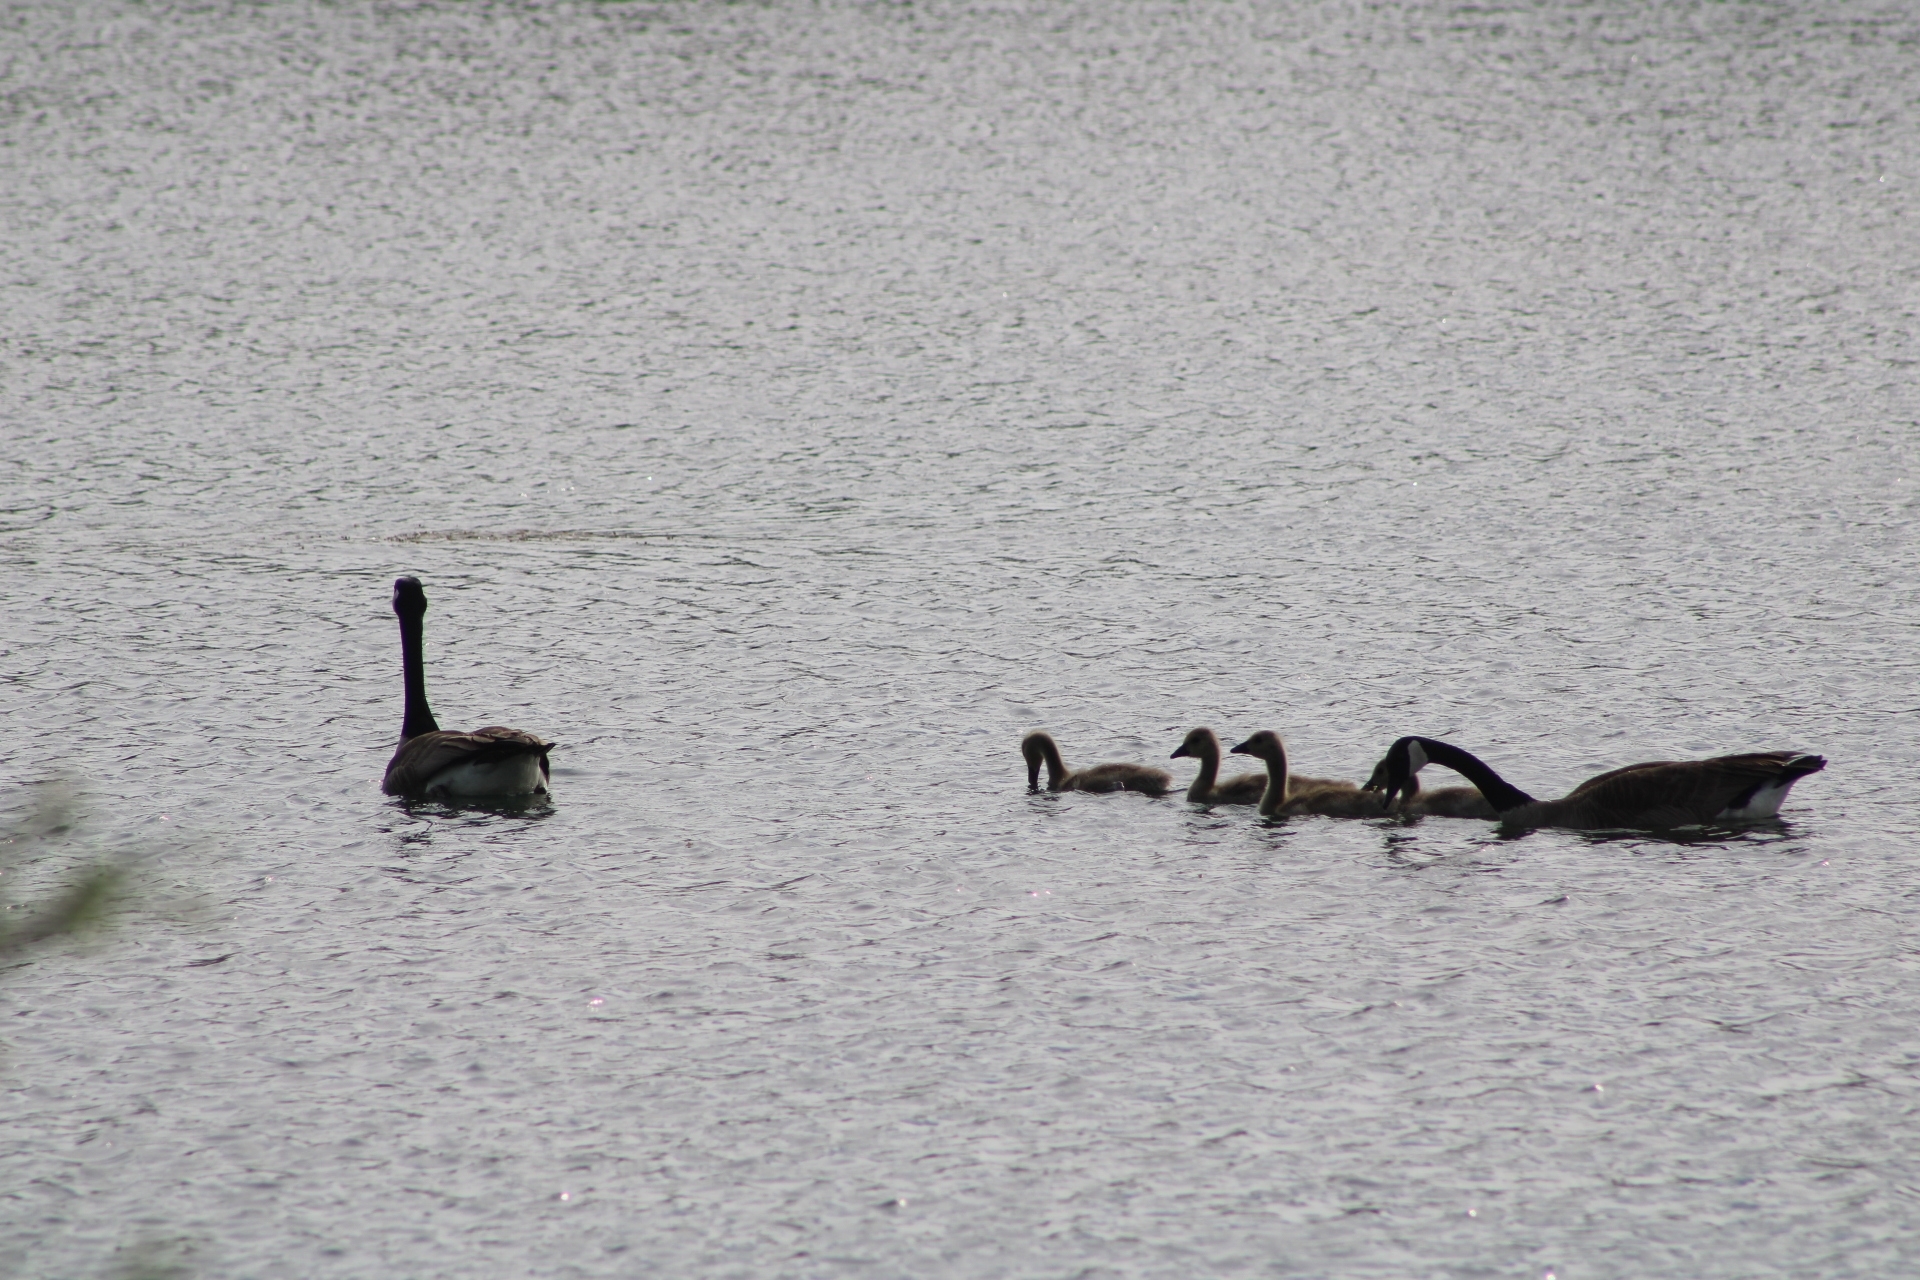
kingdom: Animalia
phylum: Chordata
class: Aves
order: Anseriformes
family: Anatidae
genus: Branta
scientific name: Branta canadensis
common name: Canada goose
